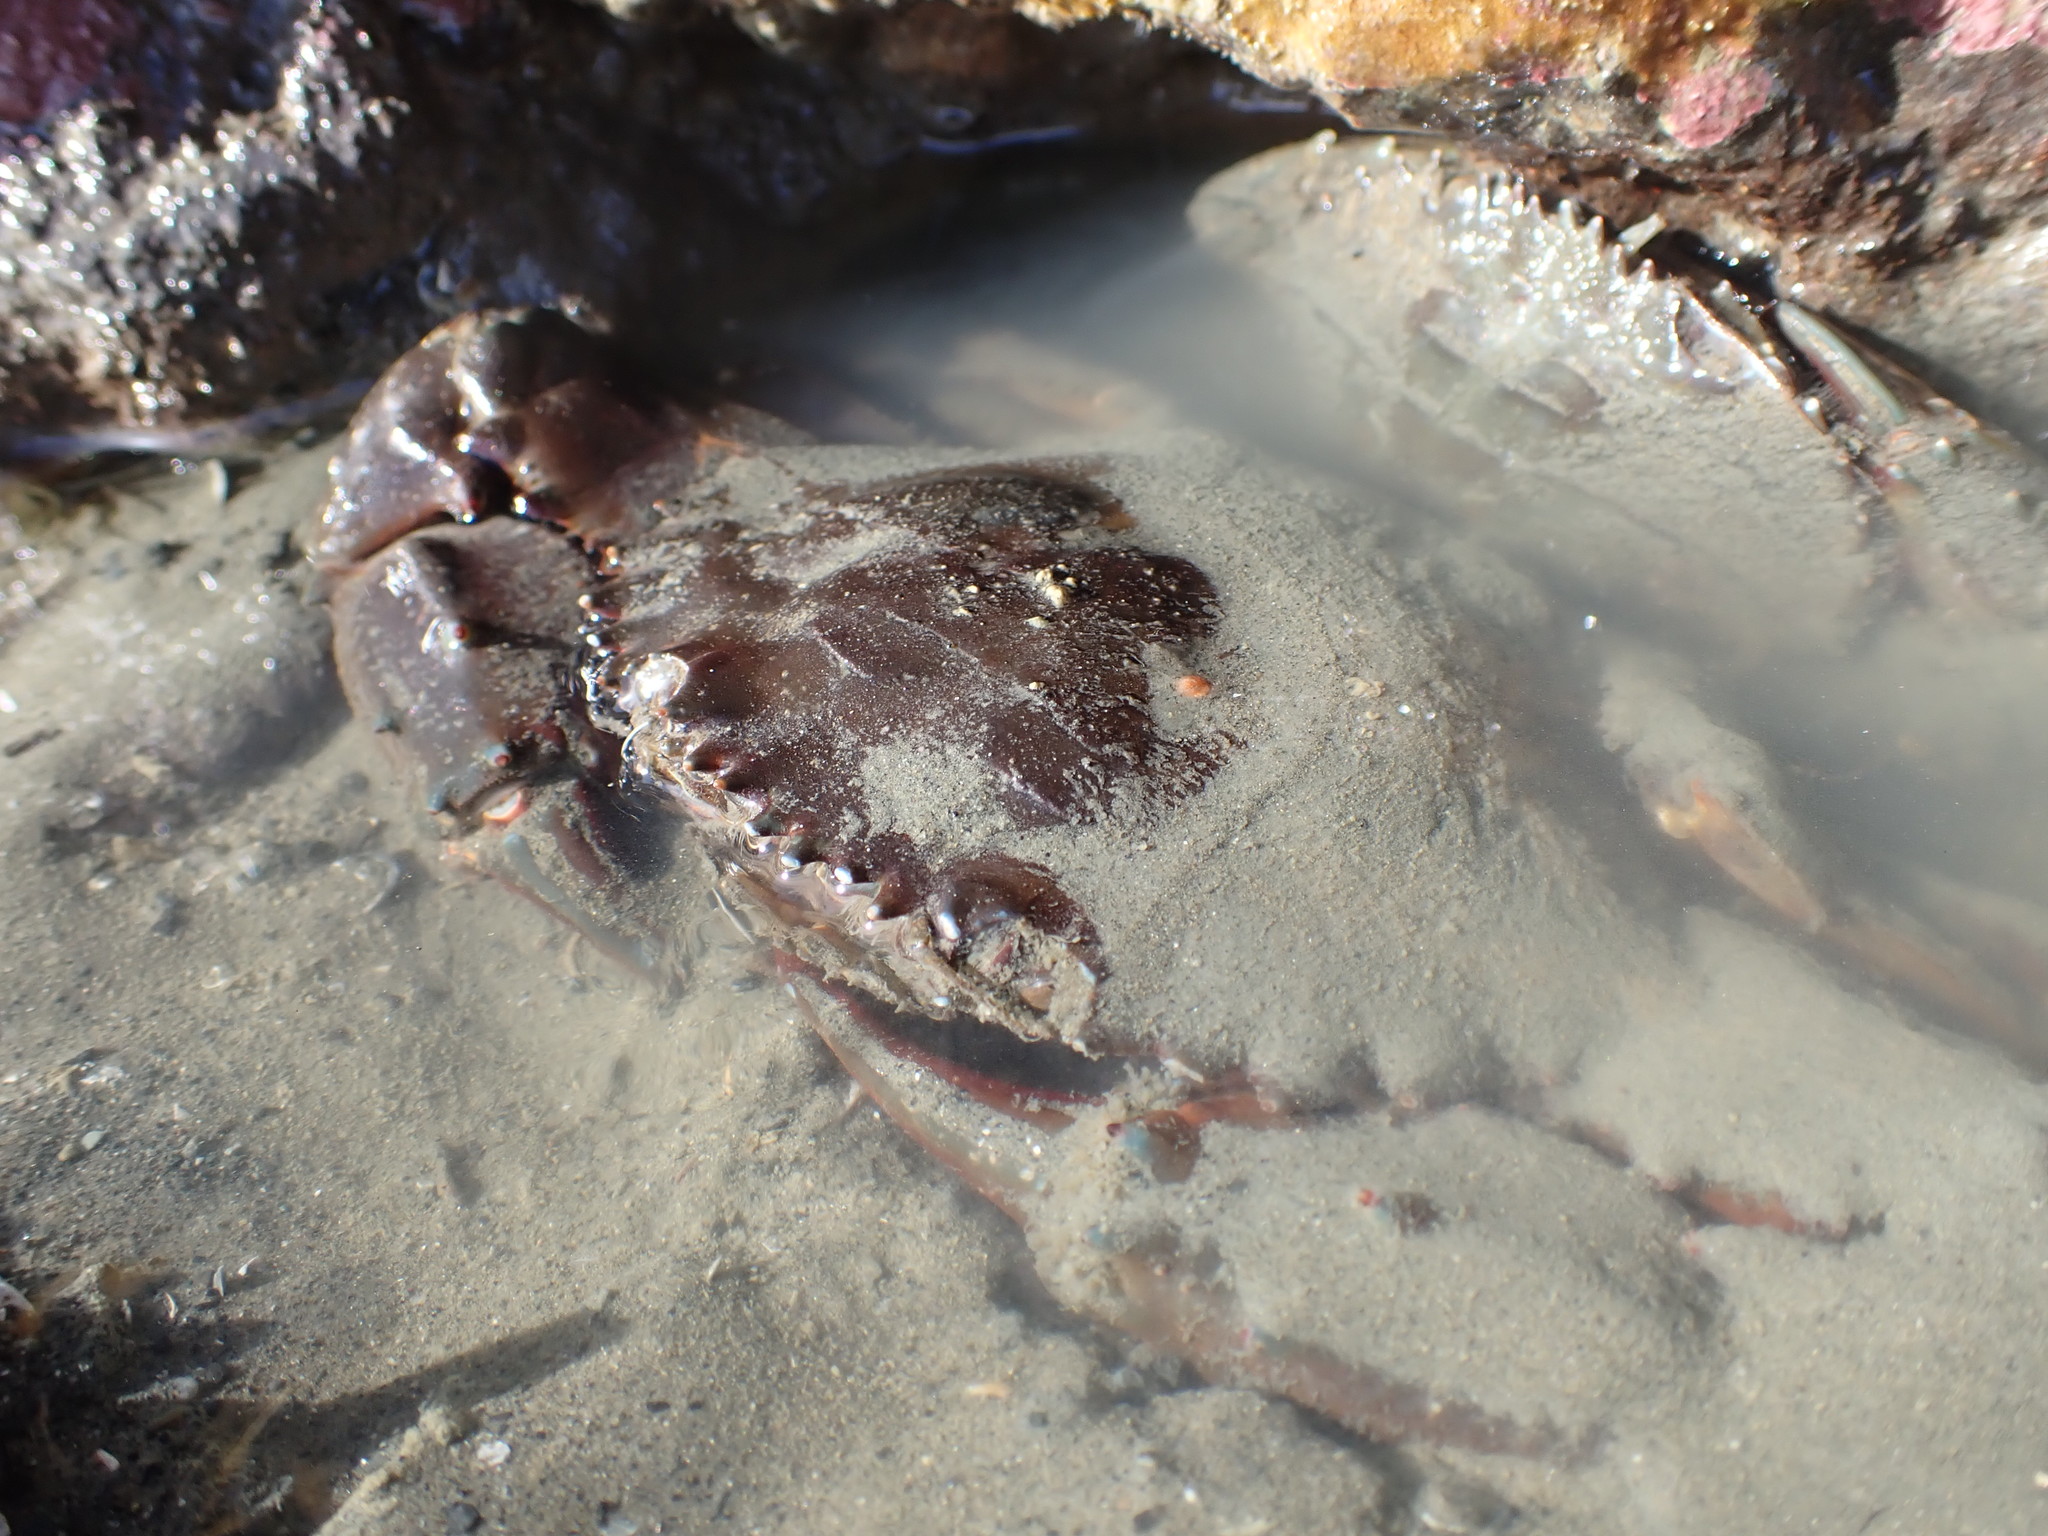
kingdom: Animalia
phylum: Arthropoda
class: Malacostraca
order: Decapoda
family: Portunidae
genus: Charybdis
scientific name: Charybdis japonica
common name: Asian paddle crab
